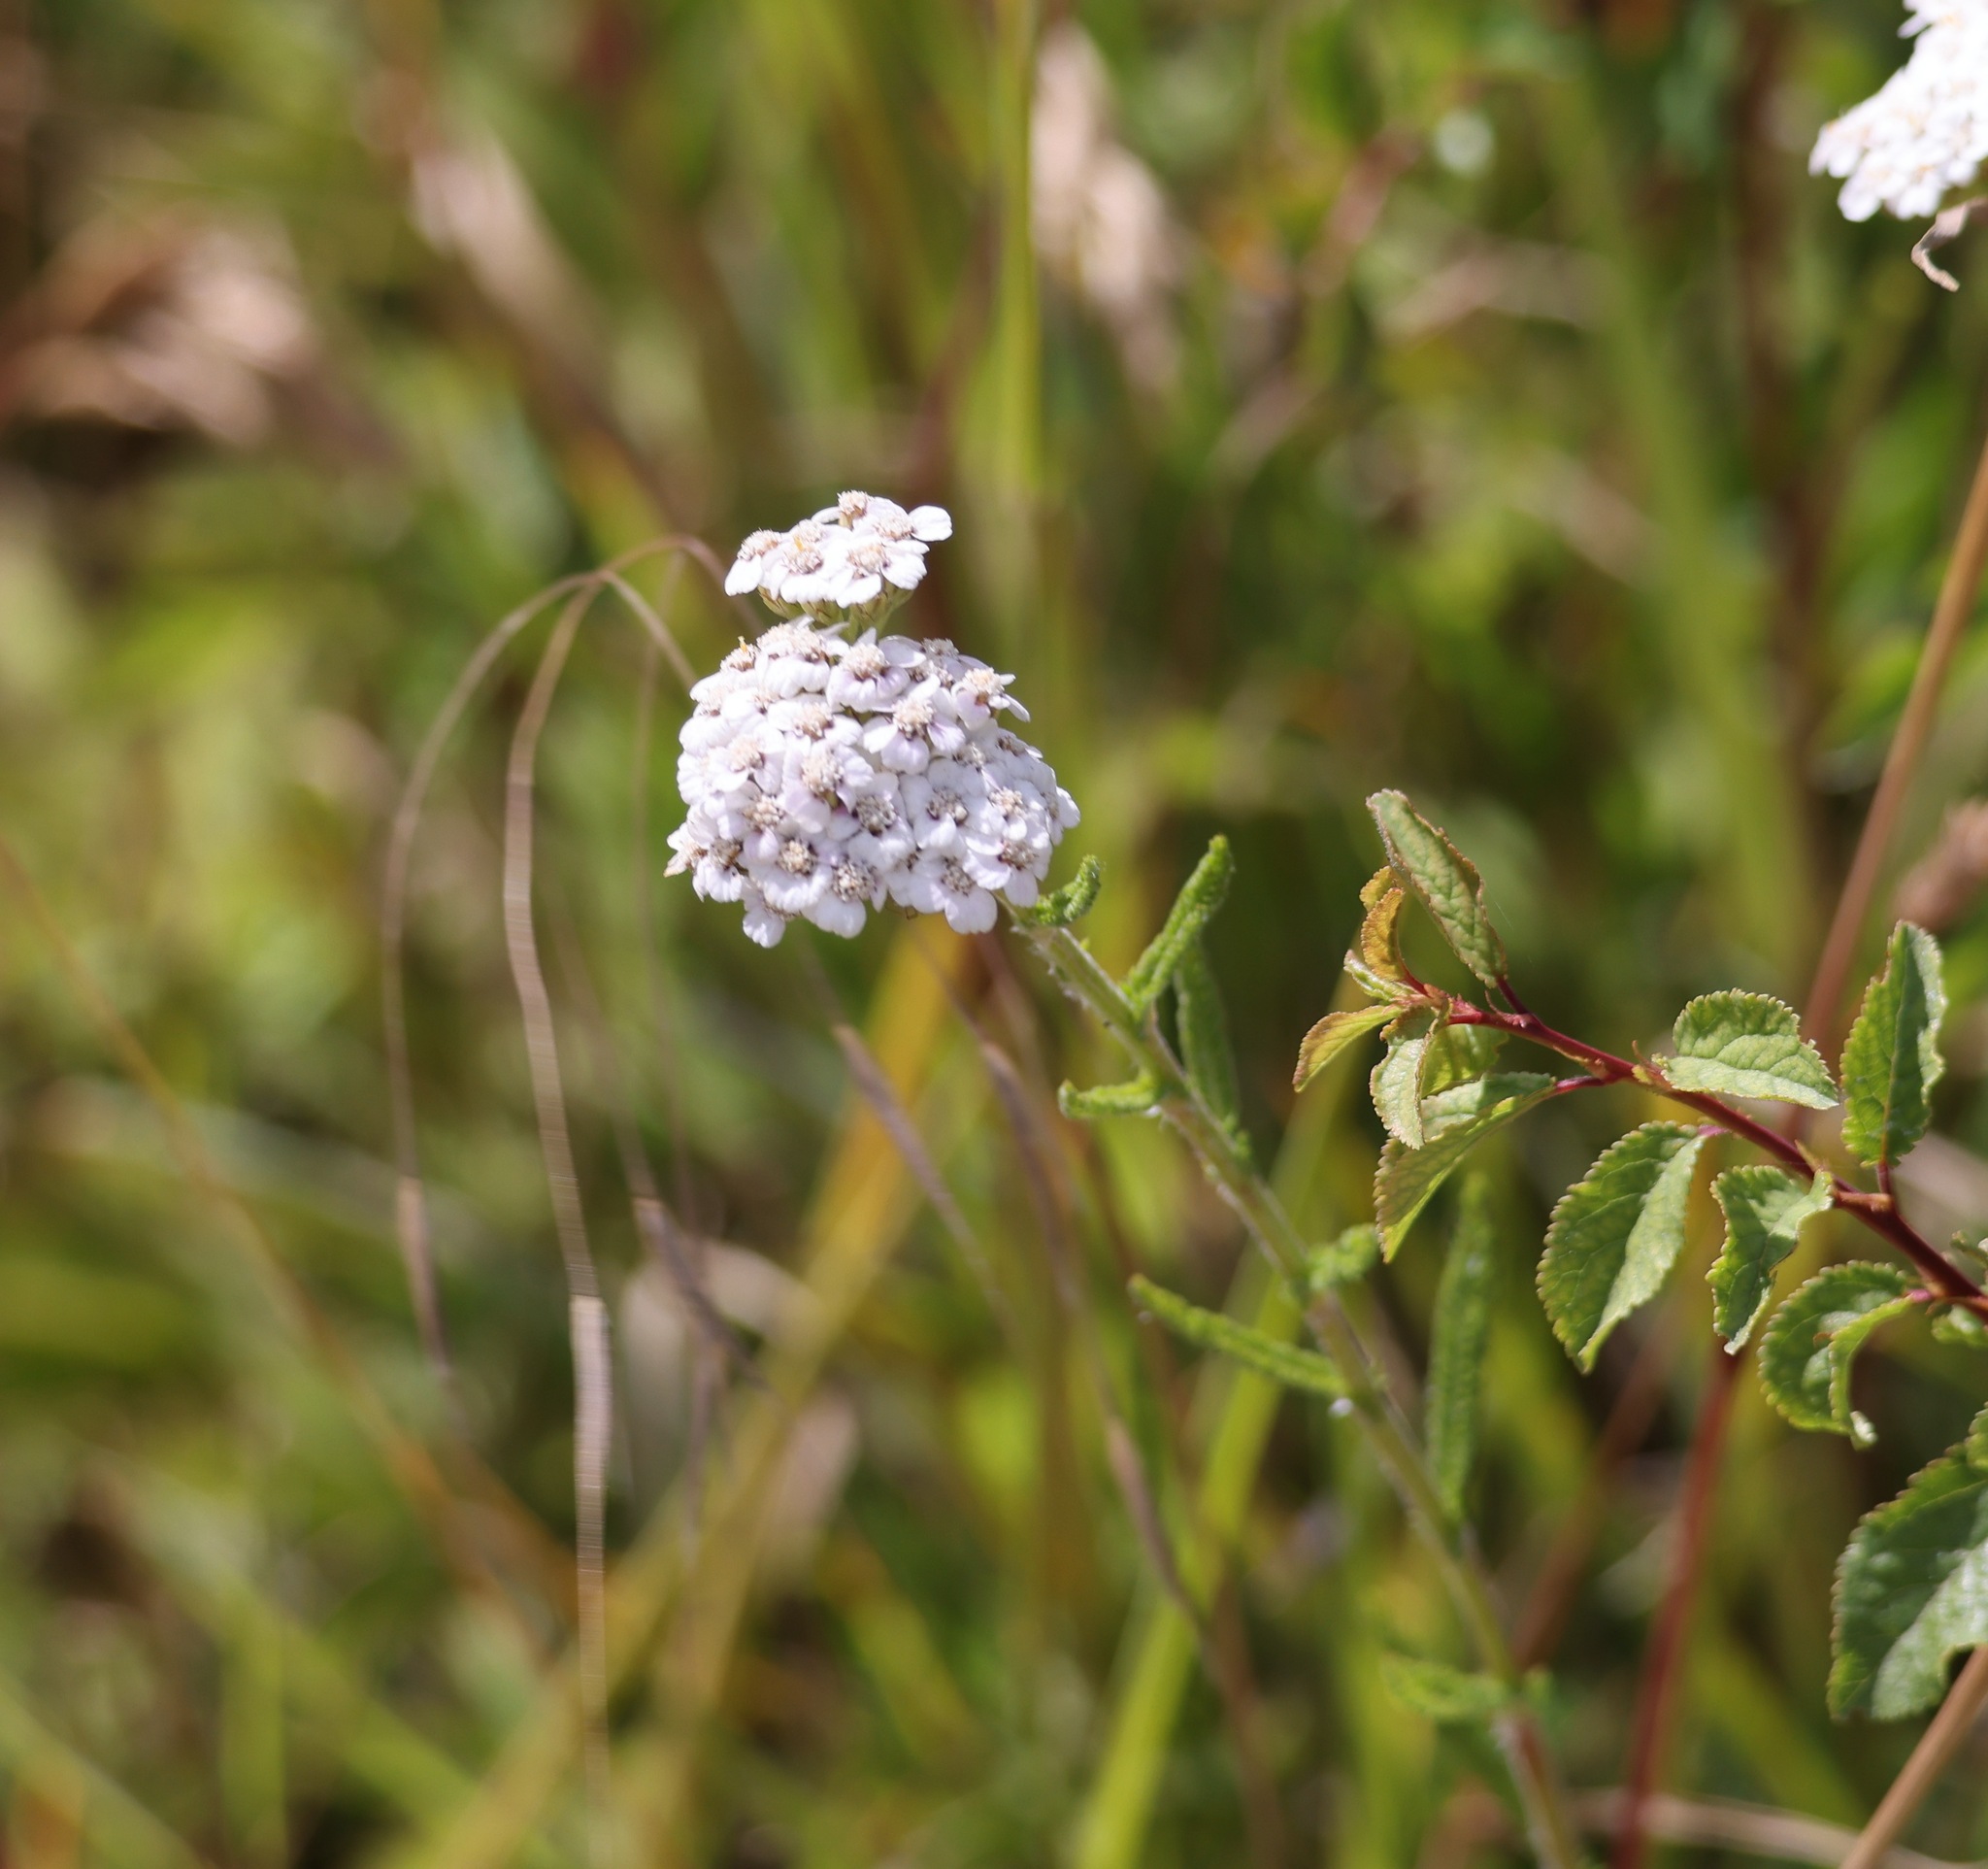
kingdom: Plantae
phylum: Tracheophyta
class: Magnoliopsida
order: Asterales
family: Asteraceae
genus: Achillea
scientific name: Achillea millefolium
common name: Yarrow
